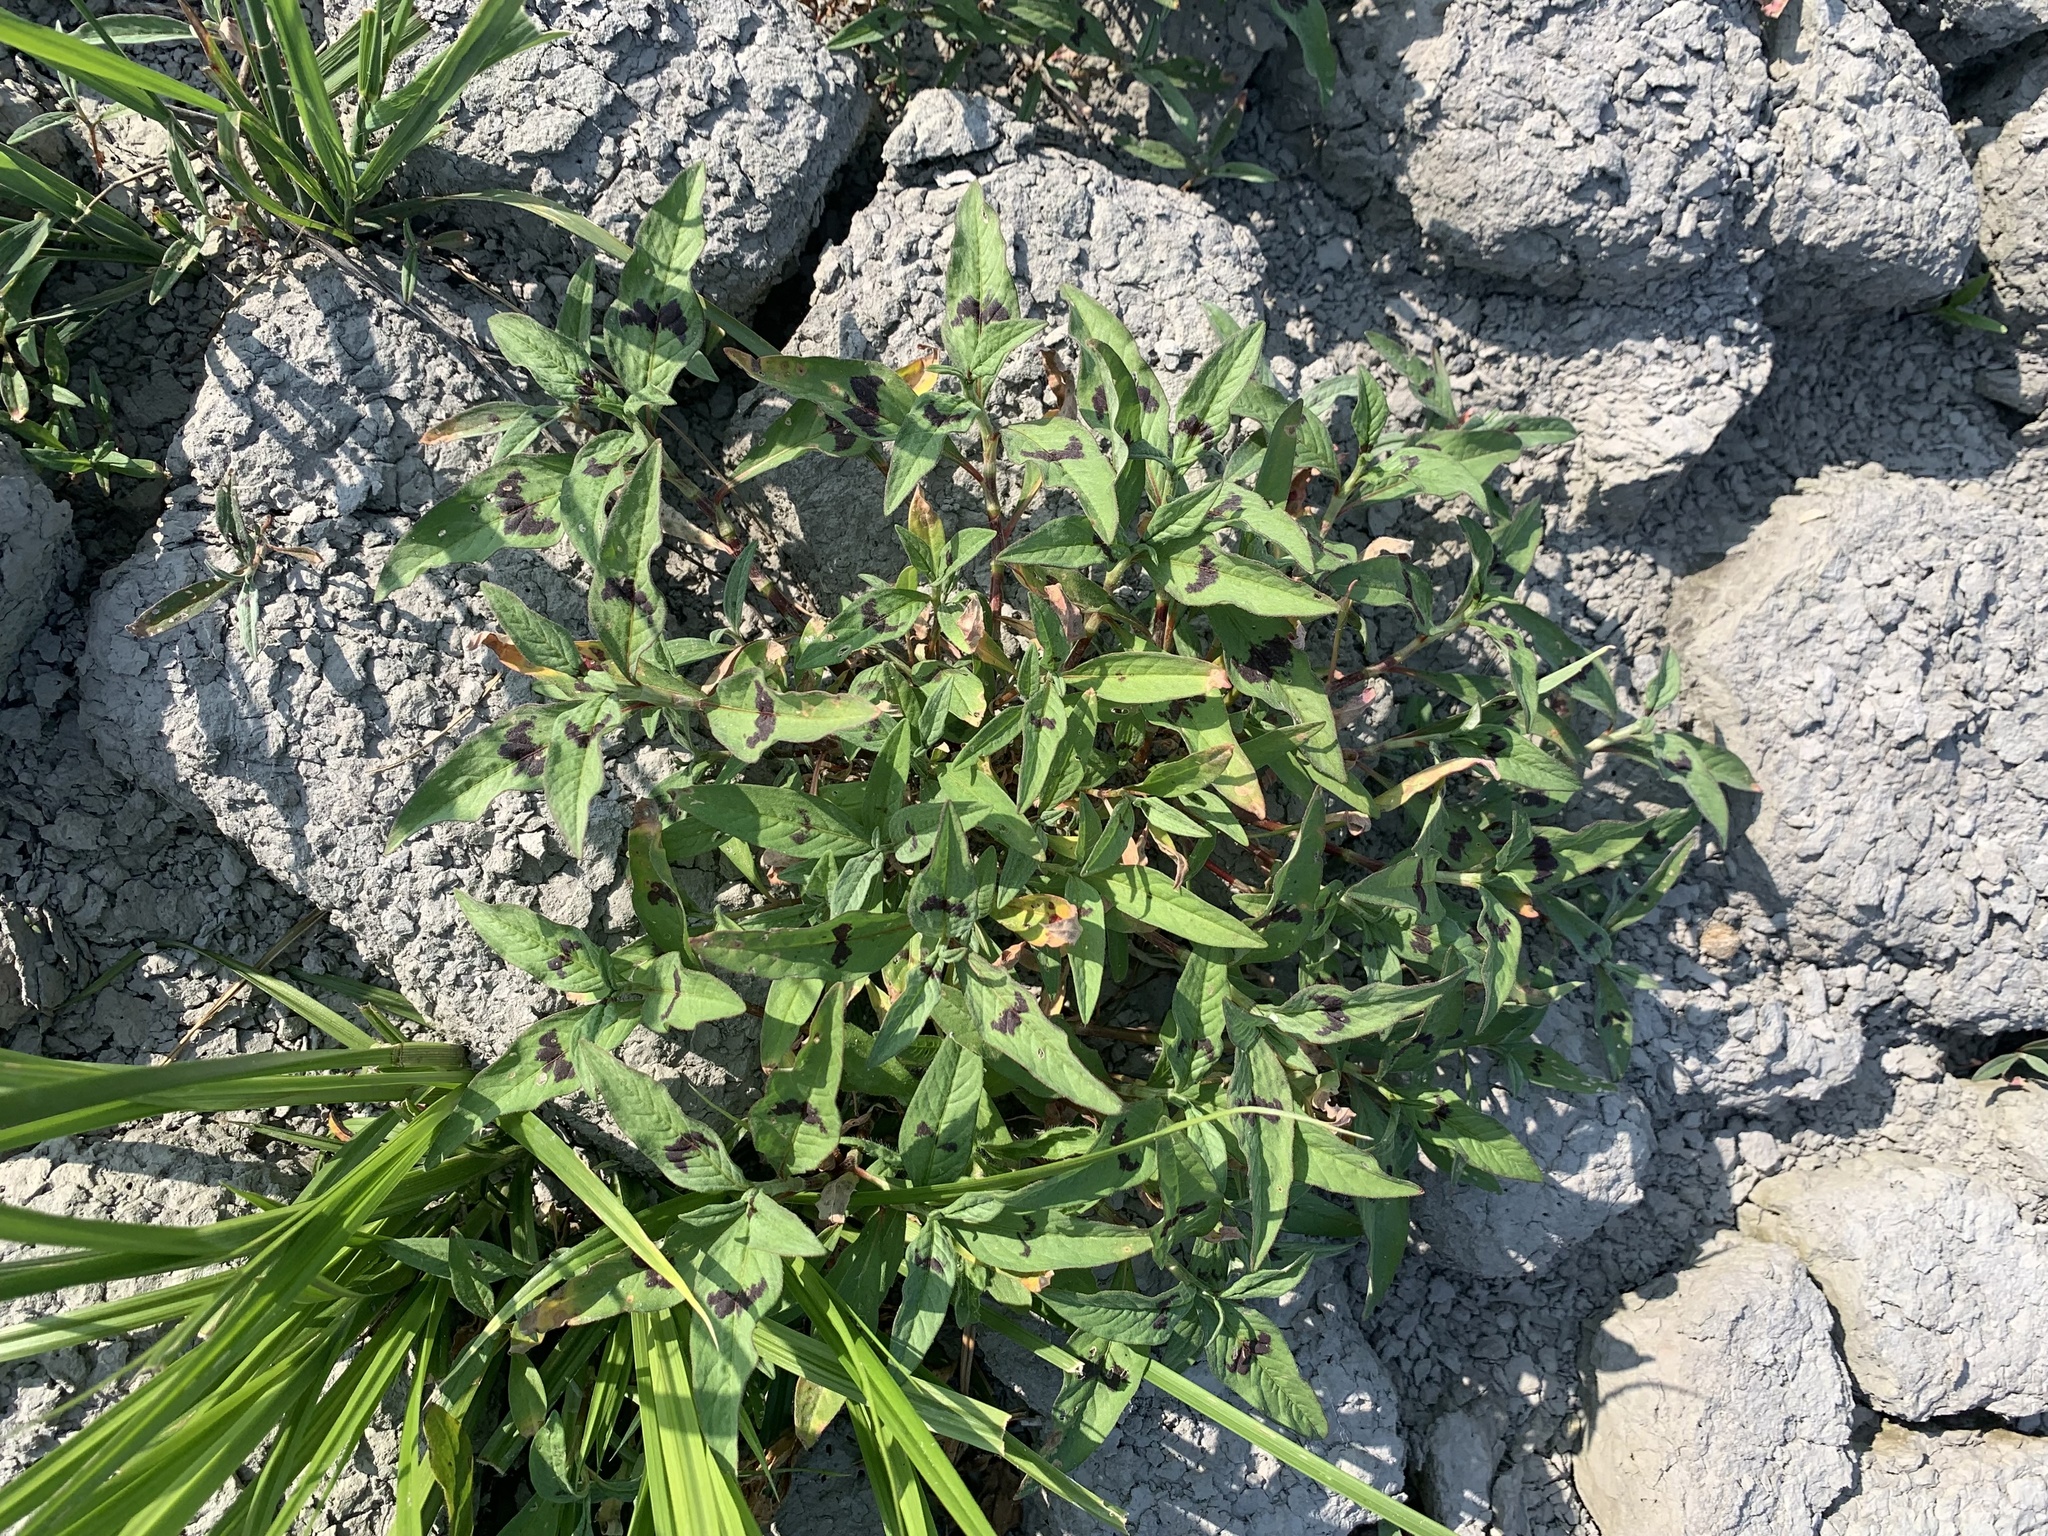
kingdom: Plantae
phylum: Tracheophyta
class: Magnoliopsida
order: Caryophyllales
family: Polygonaceae
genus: Persicaria
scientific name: Persicaria maculosa
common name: Redshank
